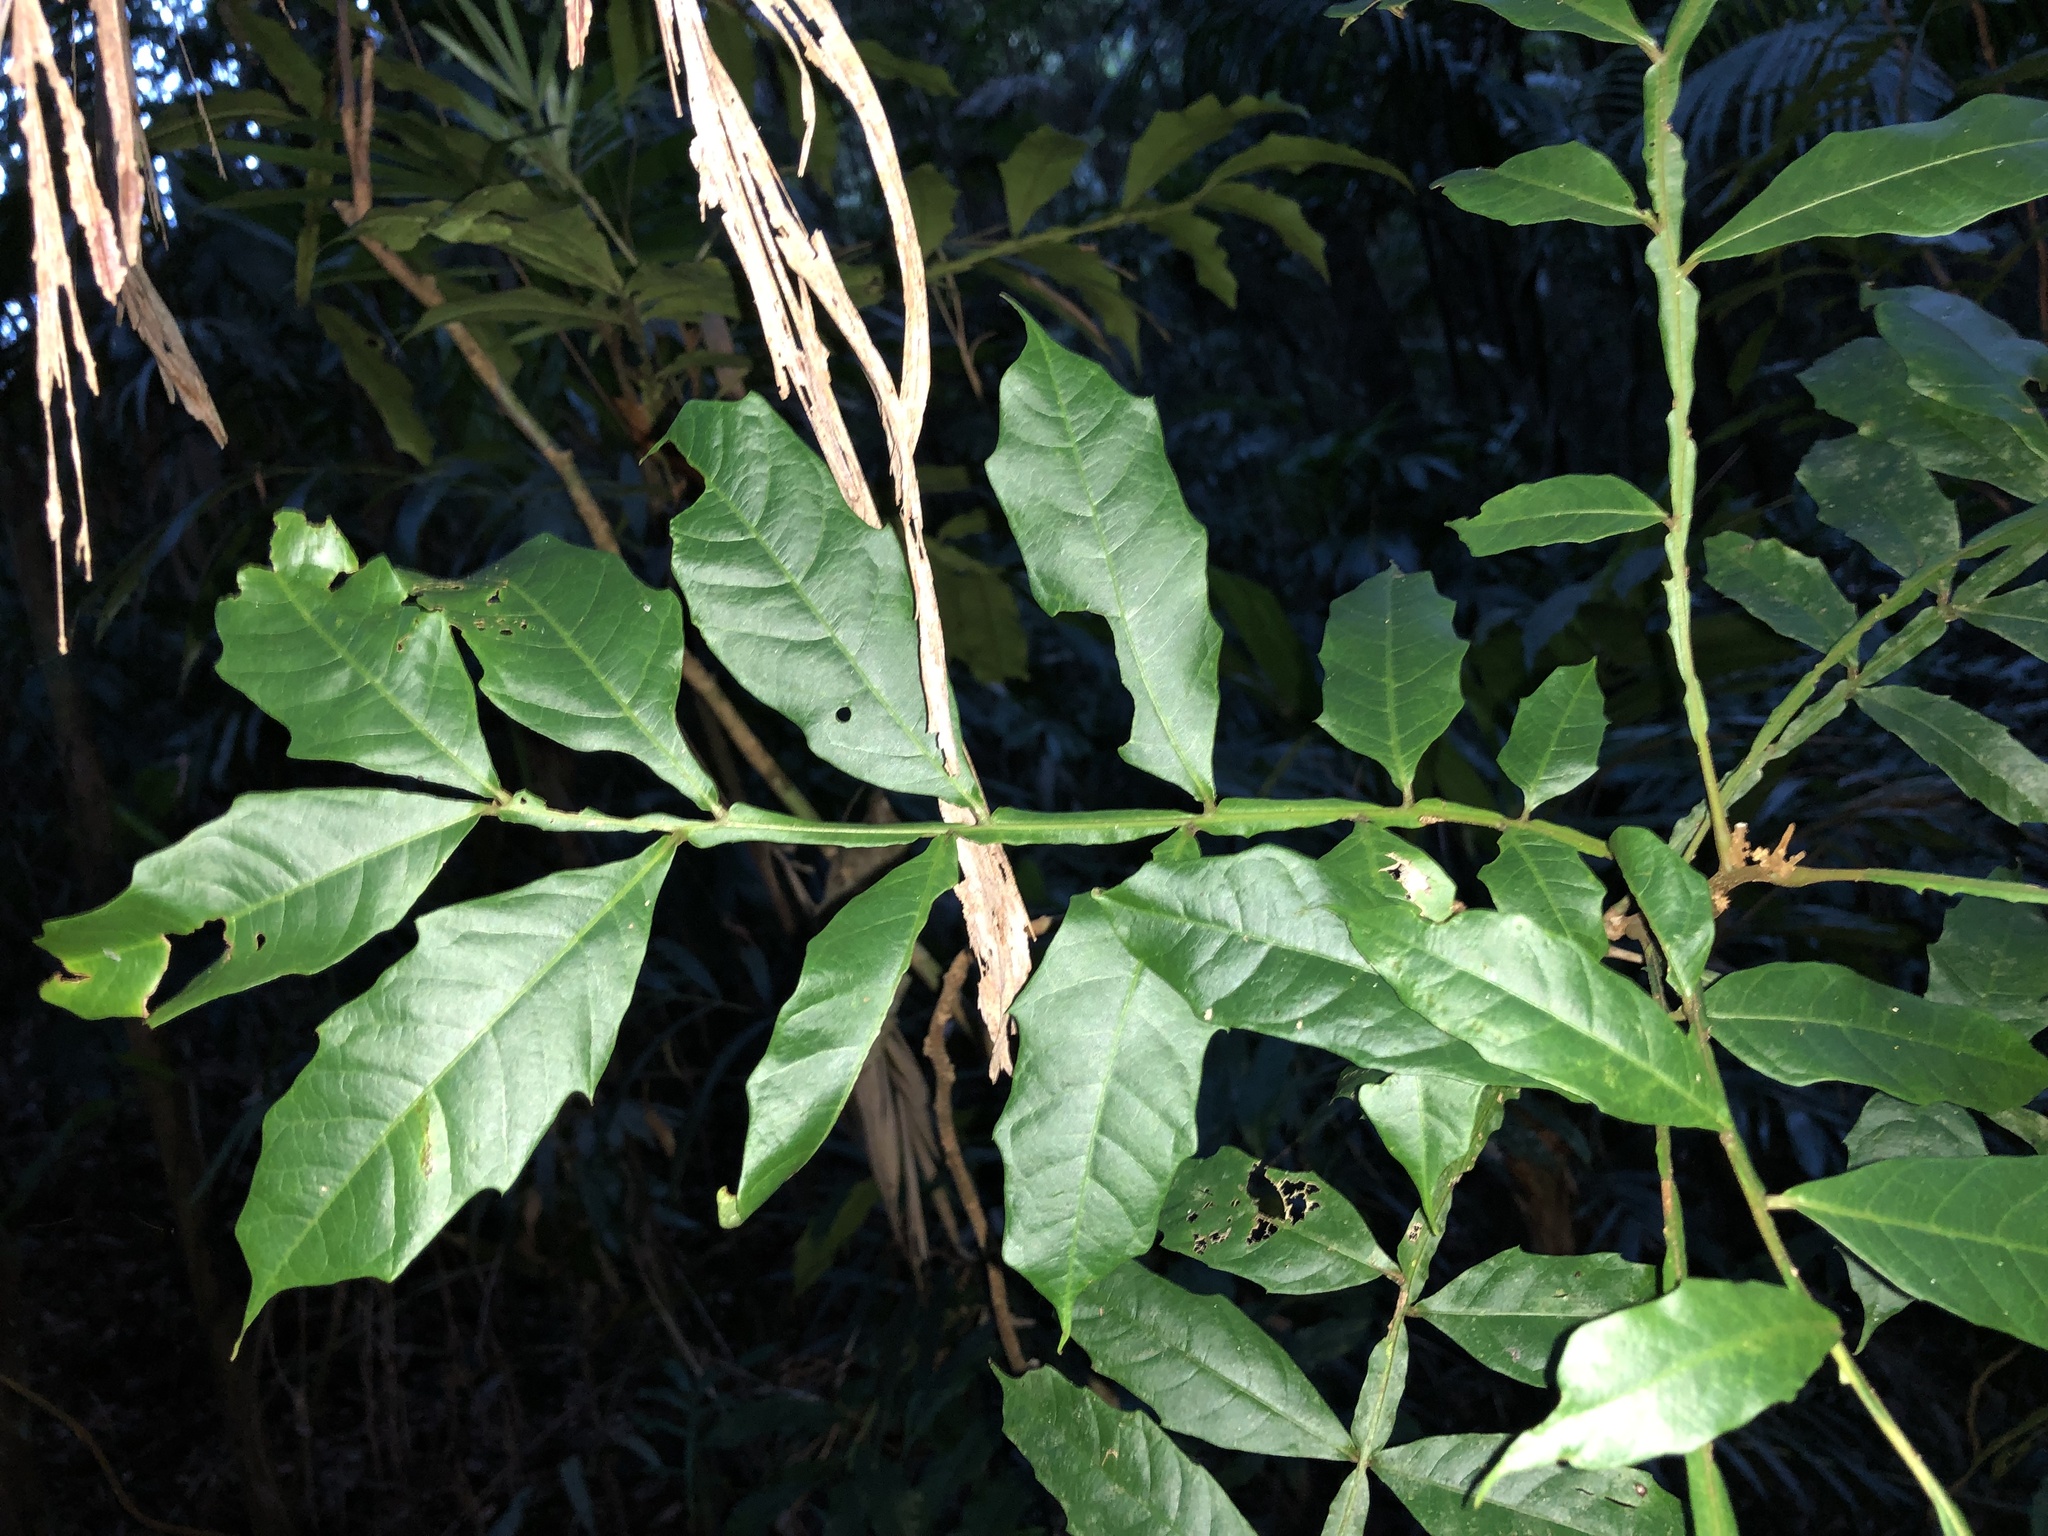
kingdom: Plantae
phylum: Tracheophyta
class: Magnoliopsida
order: Sapindales
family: Sapindaceae
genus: Harpullia
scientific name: Harpullia alata
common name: Wing-leaved tulip
